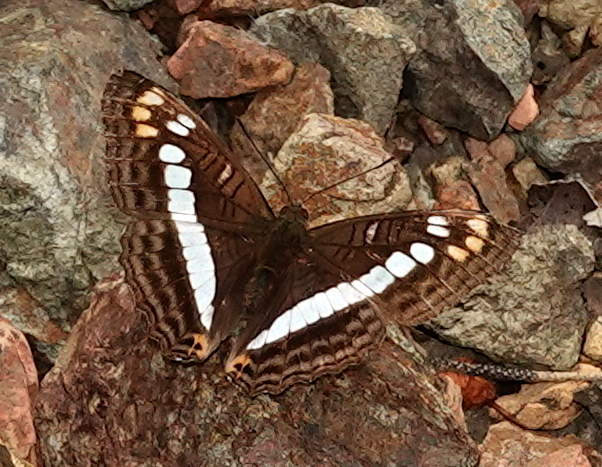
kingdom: Animalia
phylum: Arthropoda
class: Insecta
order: Lepidoptera
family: Nymphalidae
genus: Limenitis
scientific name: Limenitis alala
